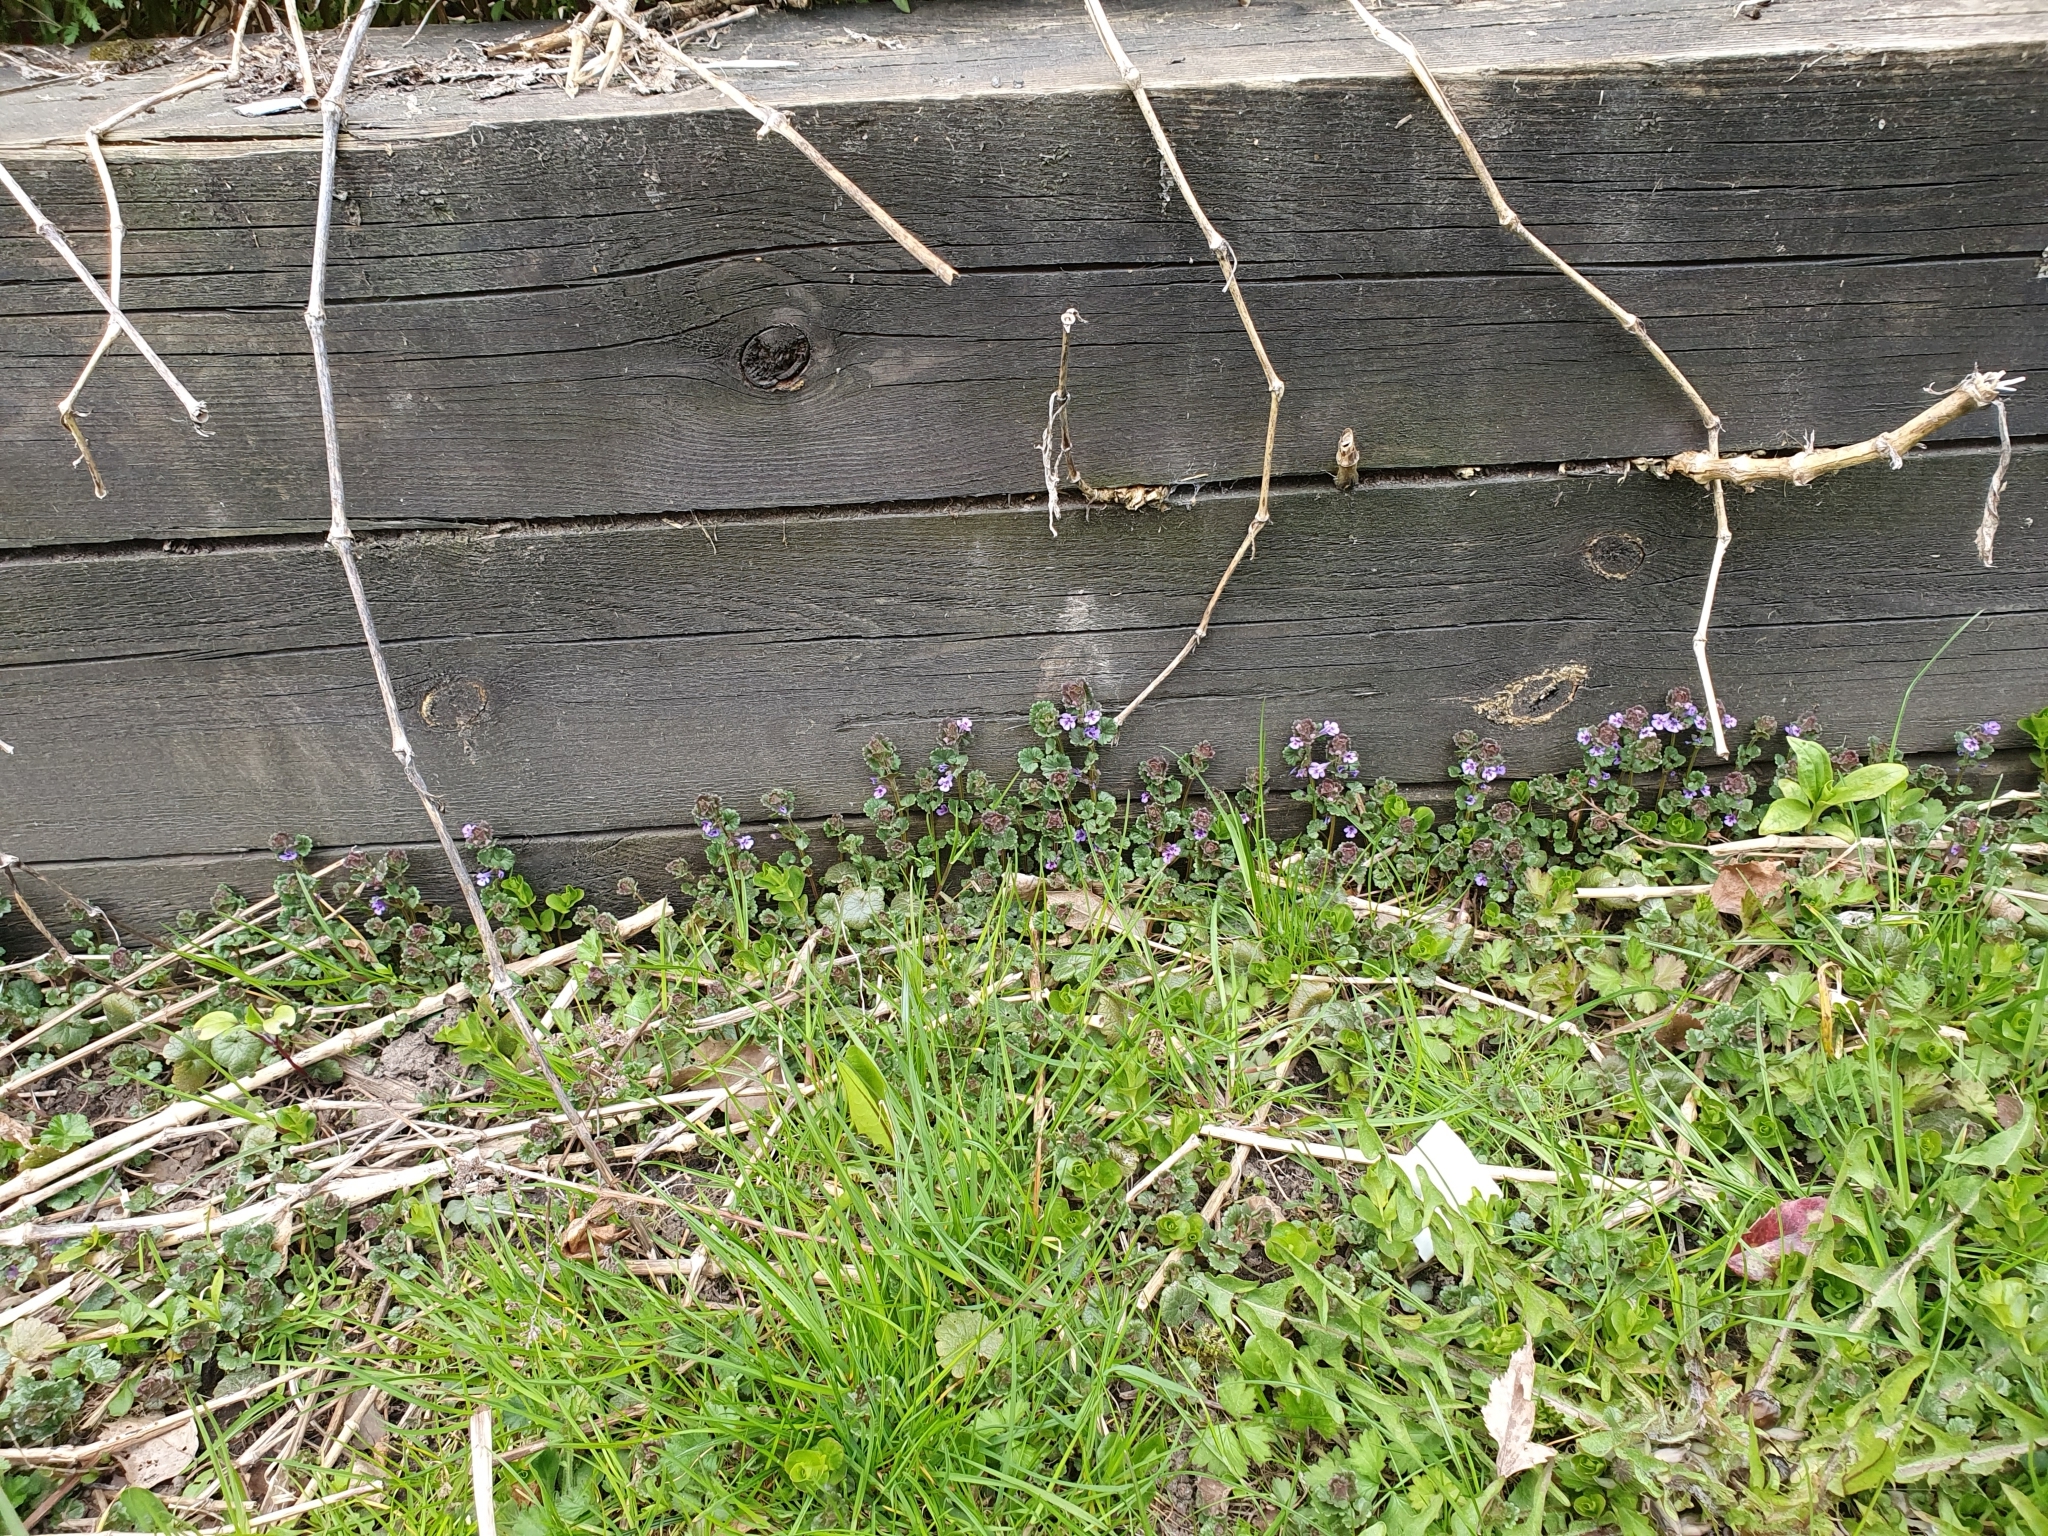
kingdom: Plantae
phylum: Tracheophyta
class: Magnoliopsida
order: Lamiales
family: Lamiaceae
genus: Glechoma
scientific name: Glechoma hederacea
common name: Ground ivy
